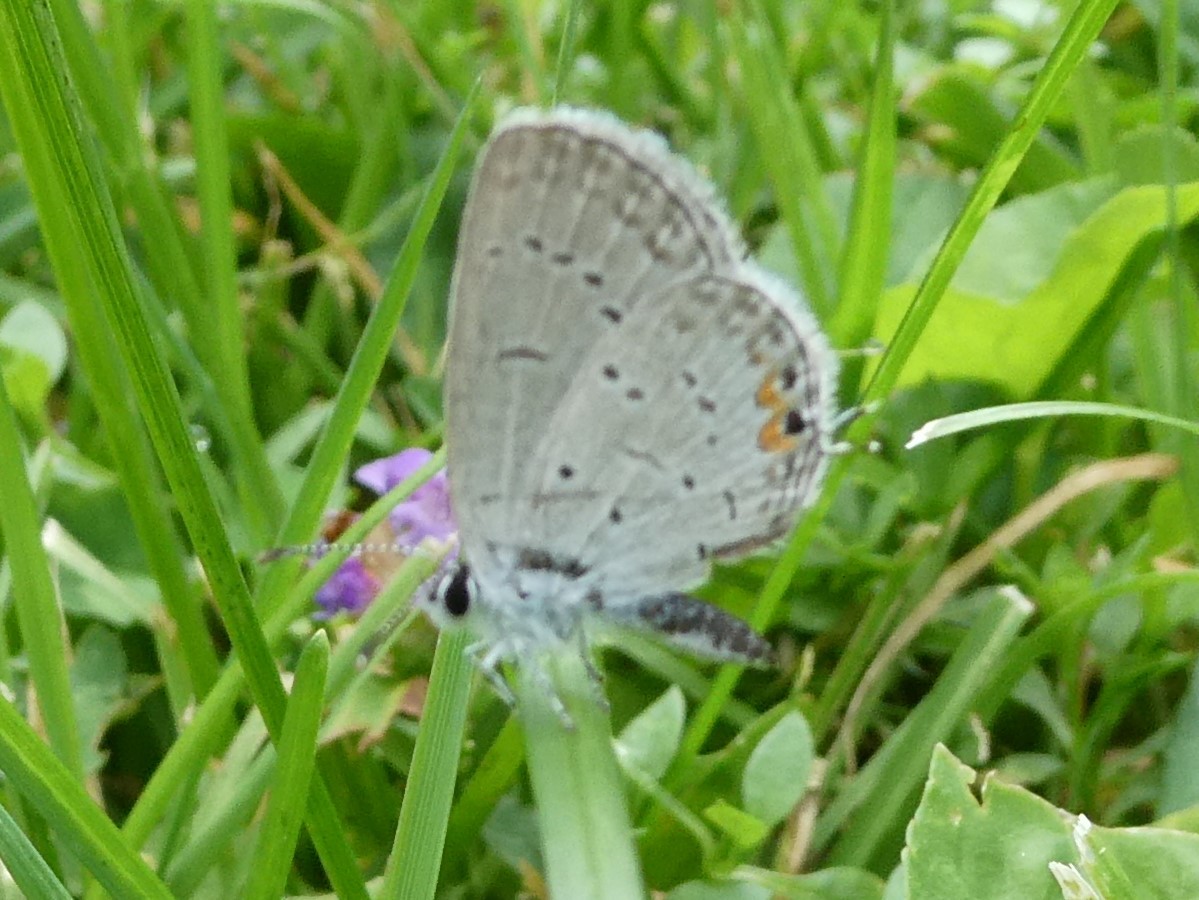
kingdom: Animalia
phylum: Arthropoda
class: Insecta
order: Lepidoptera
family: Lycaenidae
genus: Elkalyce
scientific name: Elkalyce comyntas
